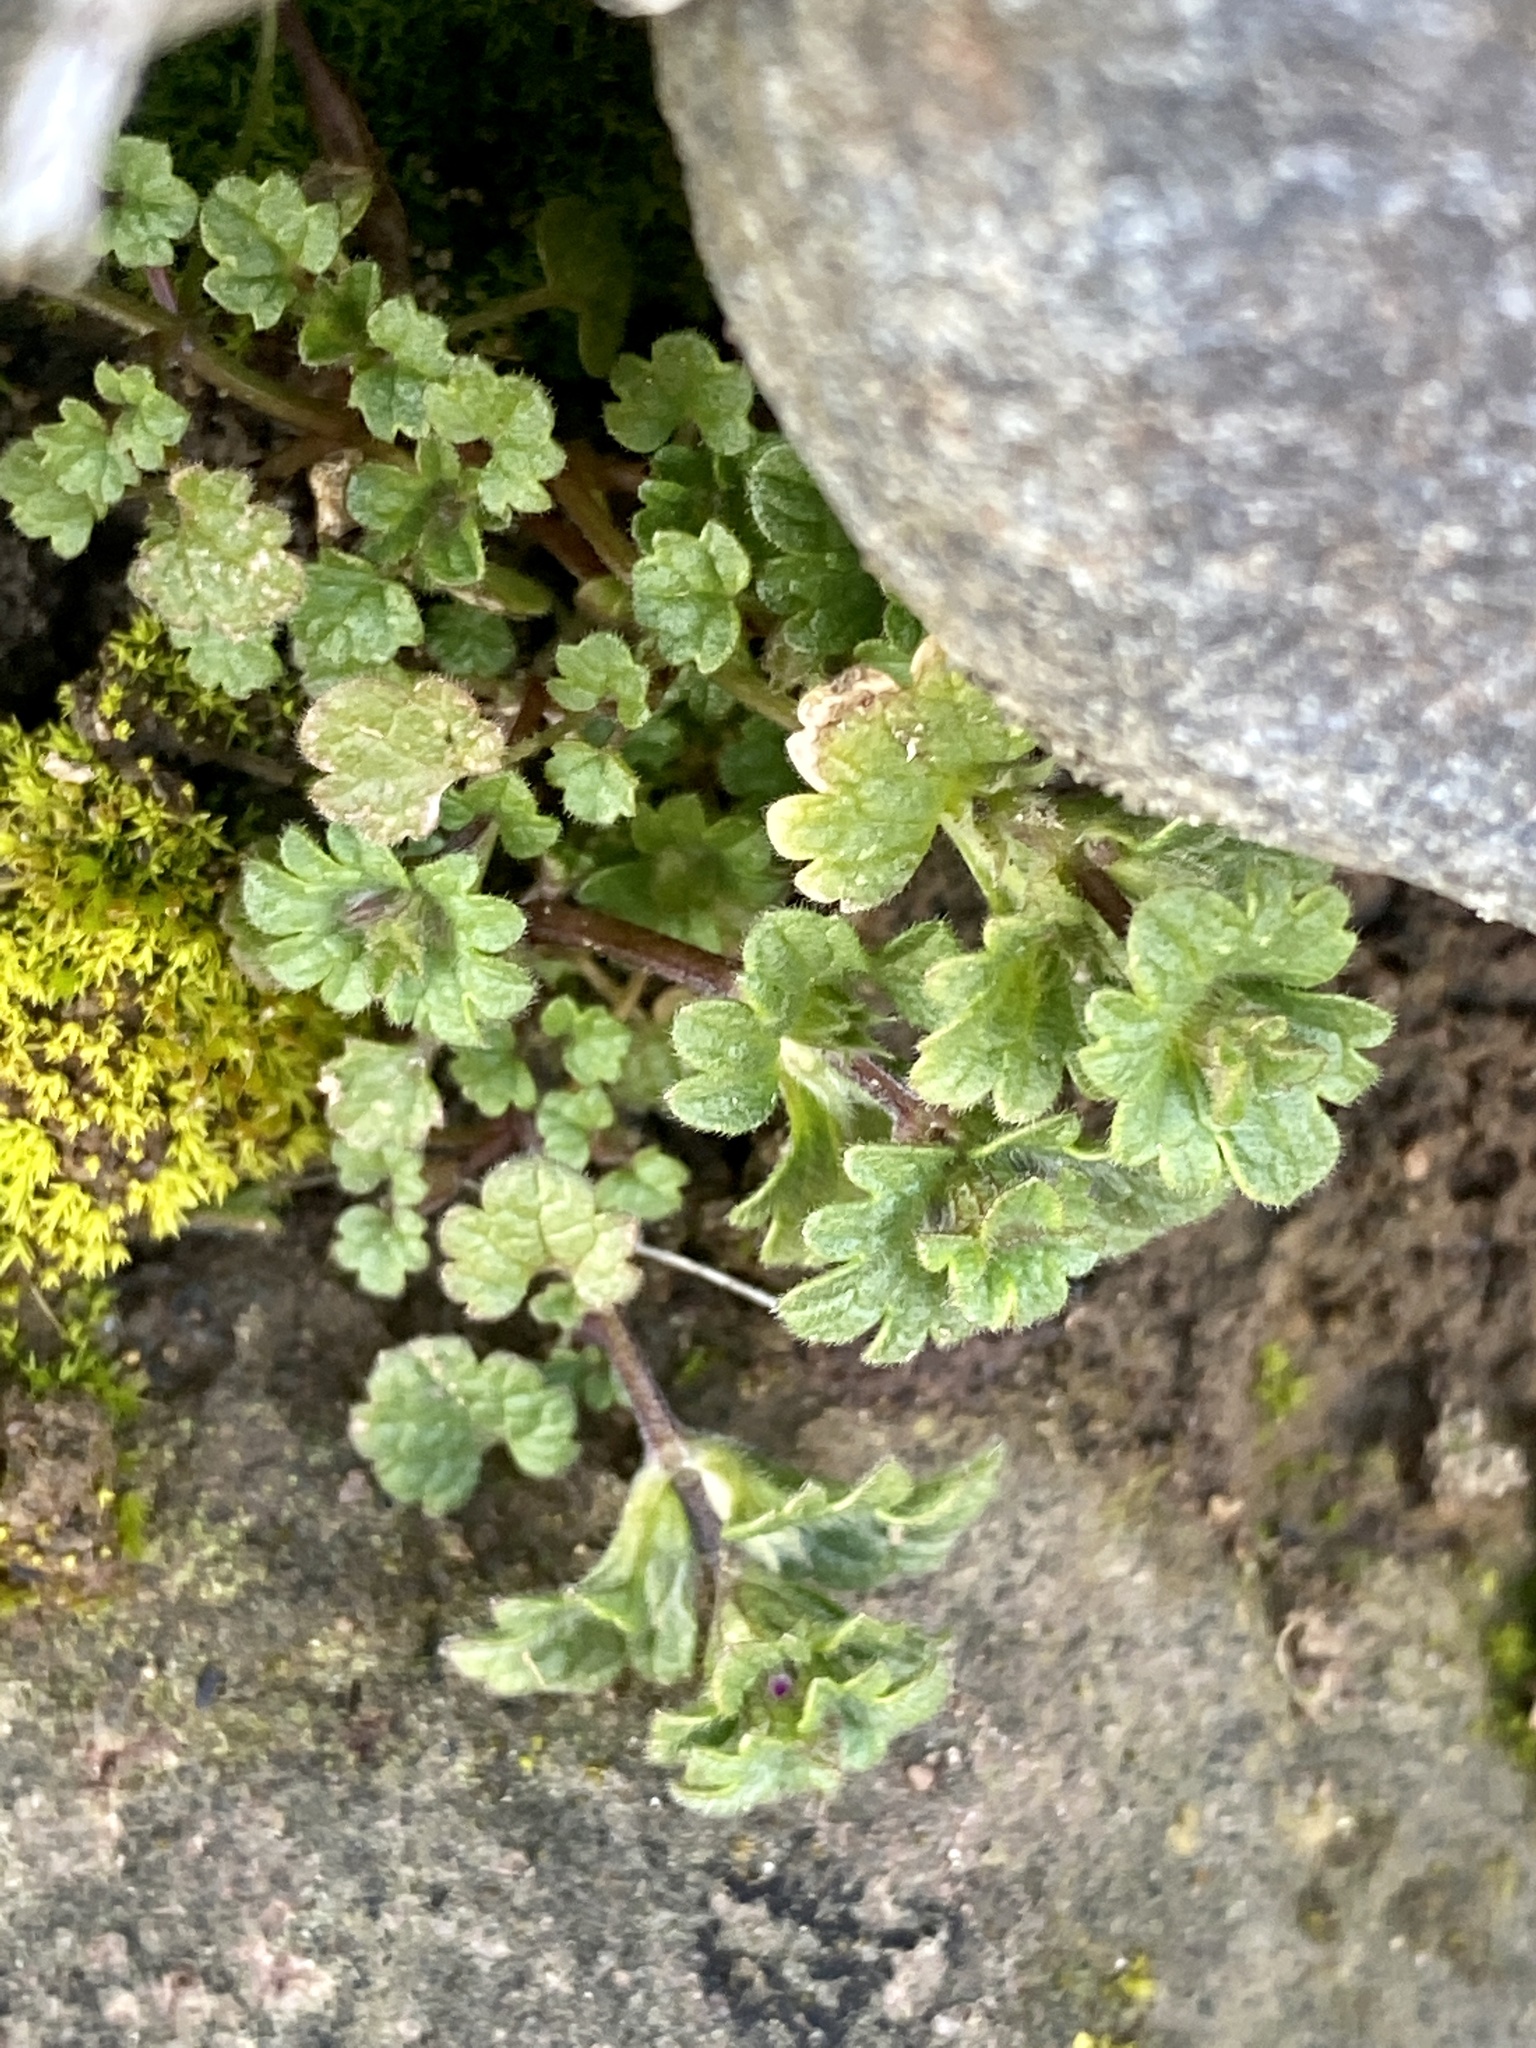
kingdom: Plantae
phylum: Tracheophyta
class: Magnoliopsida
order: Lamiales
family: Lamiaceae
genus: Lamium
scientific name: Lamium amplexicaule
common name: Henbit dead-nettle
